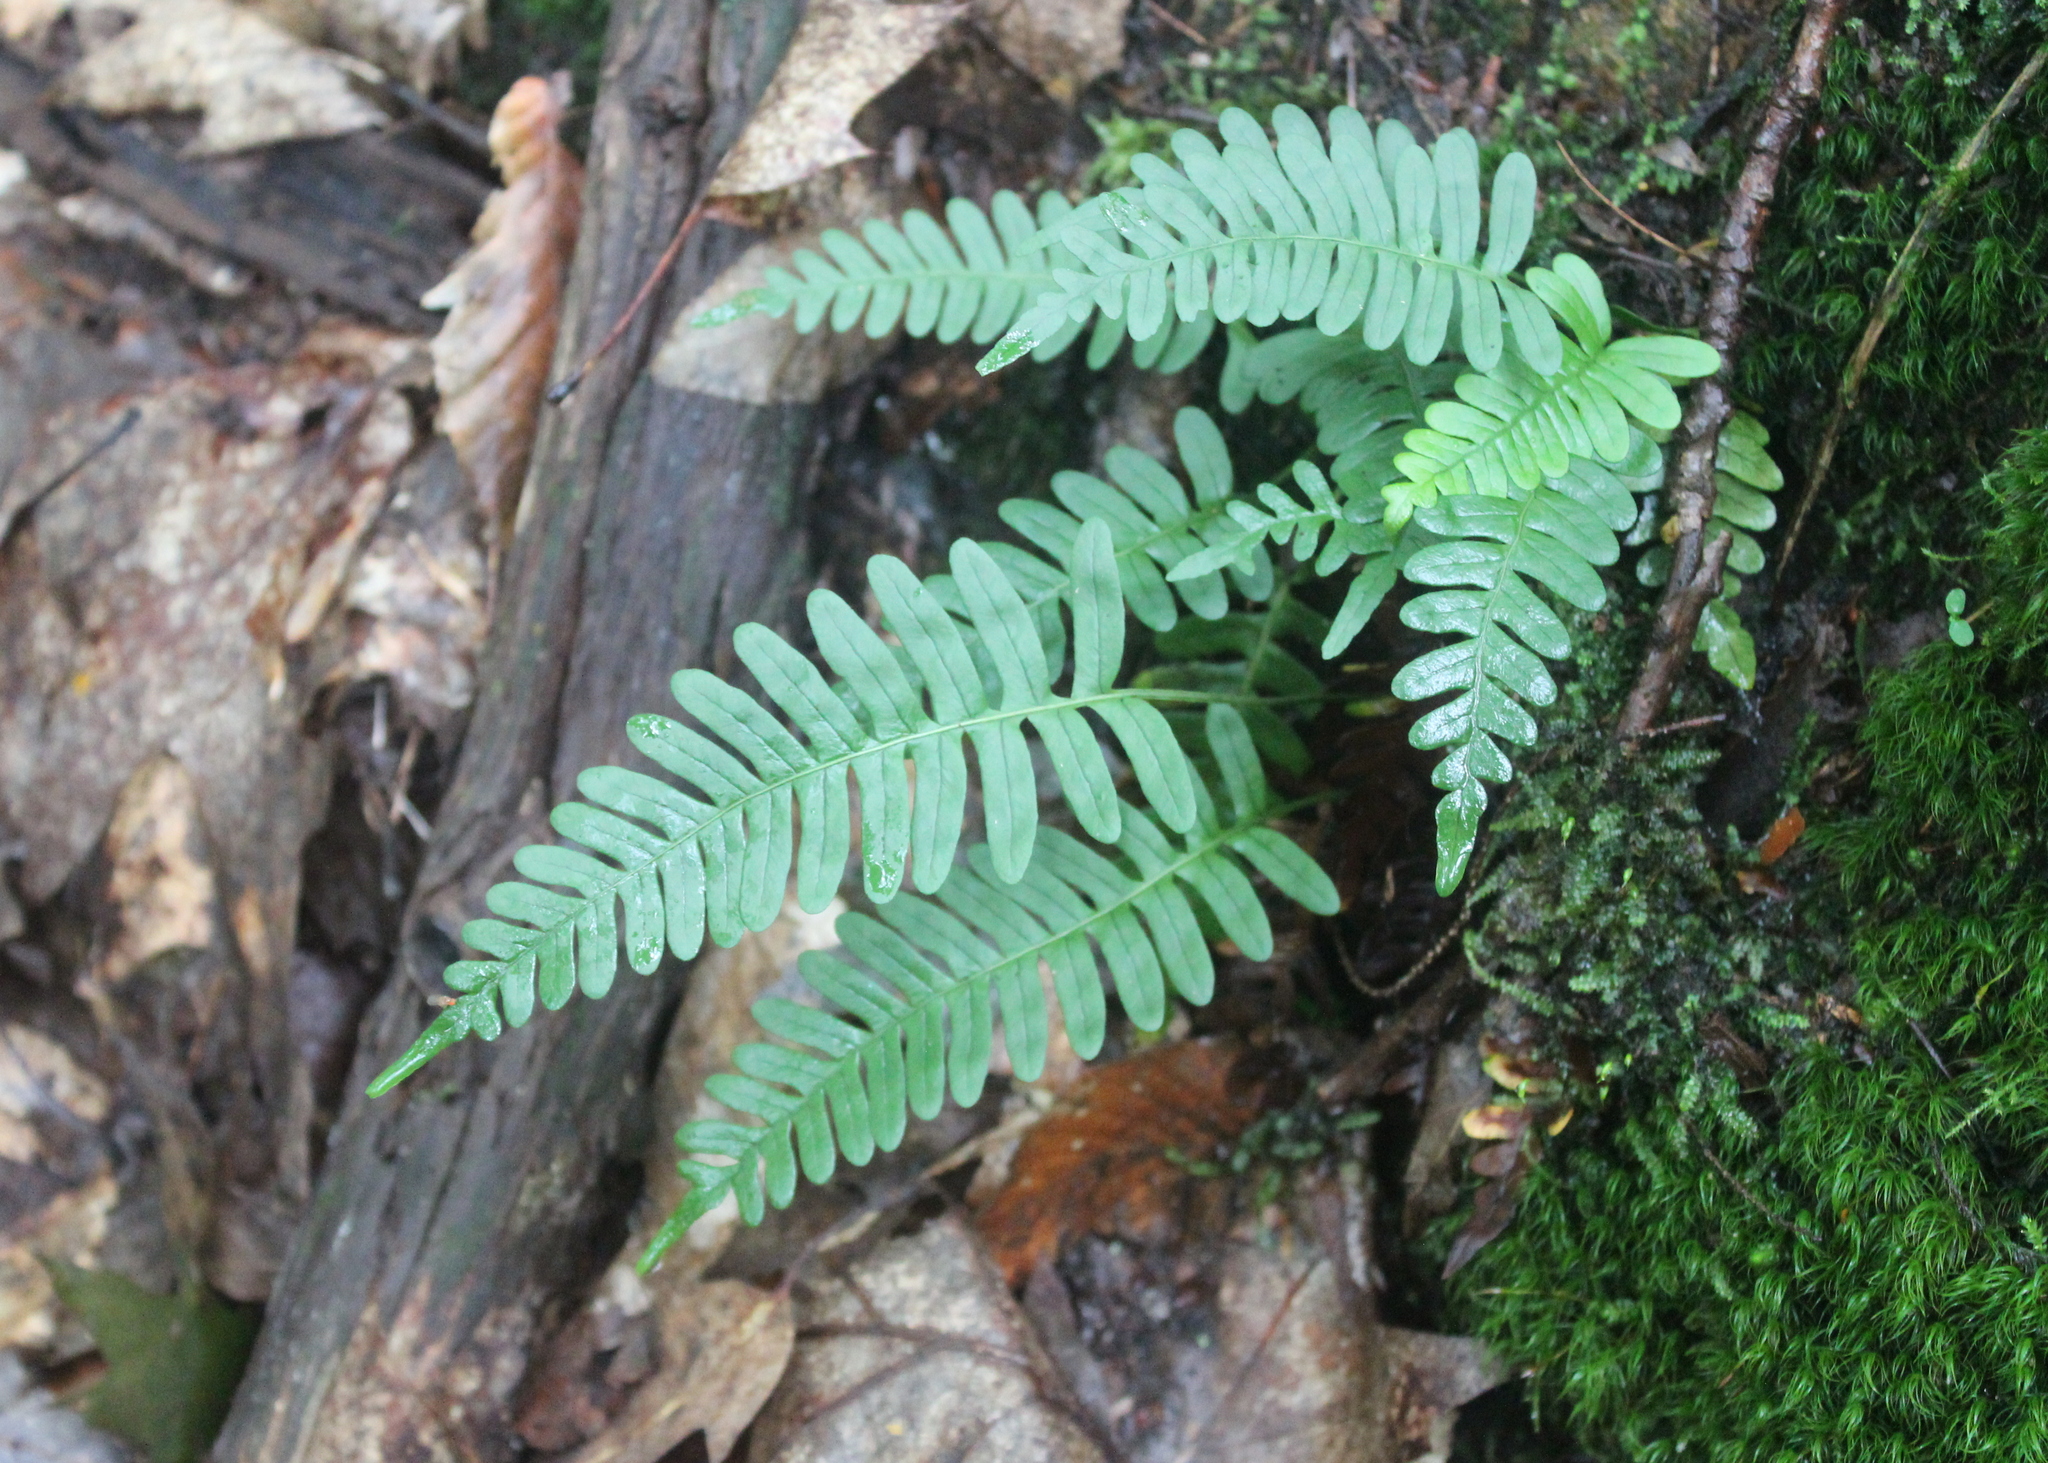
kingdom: Plantae
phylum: Tracheophyta
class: Polypodiopsida
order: Polypodiales
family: Polypodiaceae
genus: Polypodium
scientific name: Polypodium virginianum
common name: American wall fern
